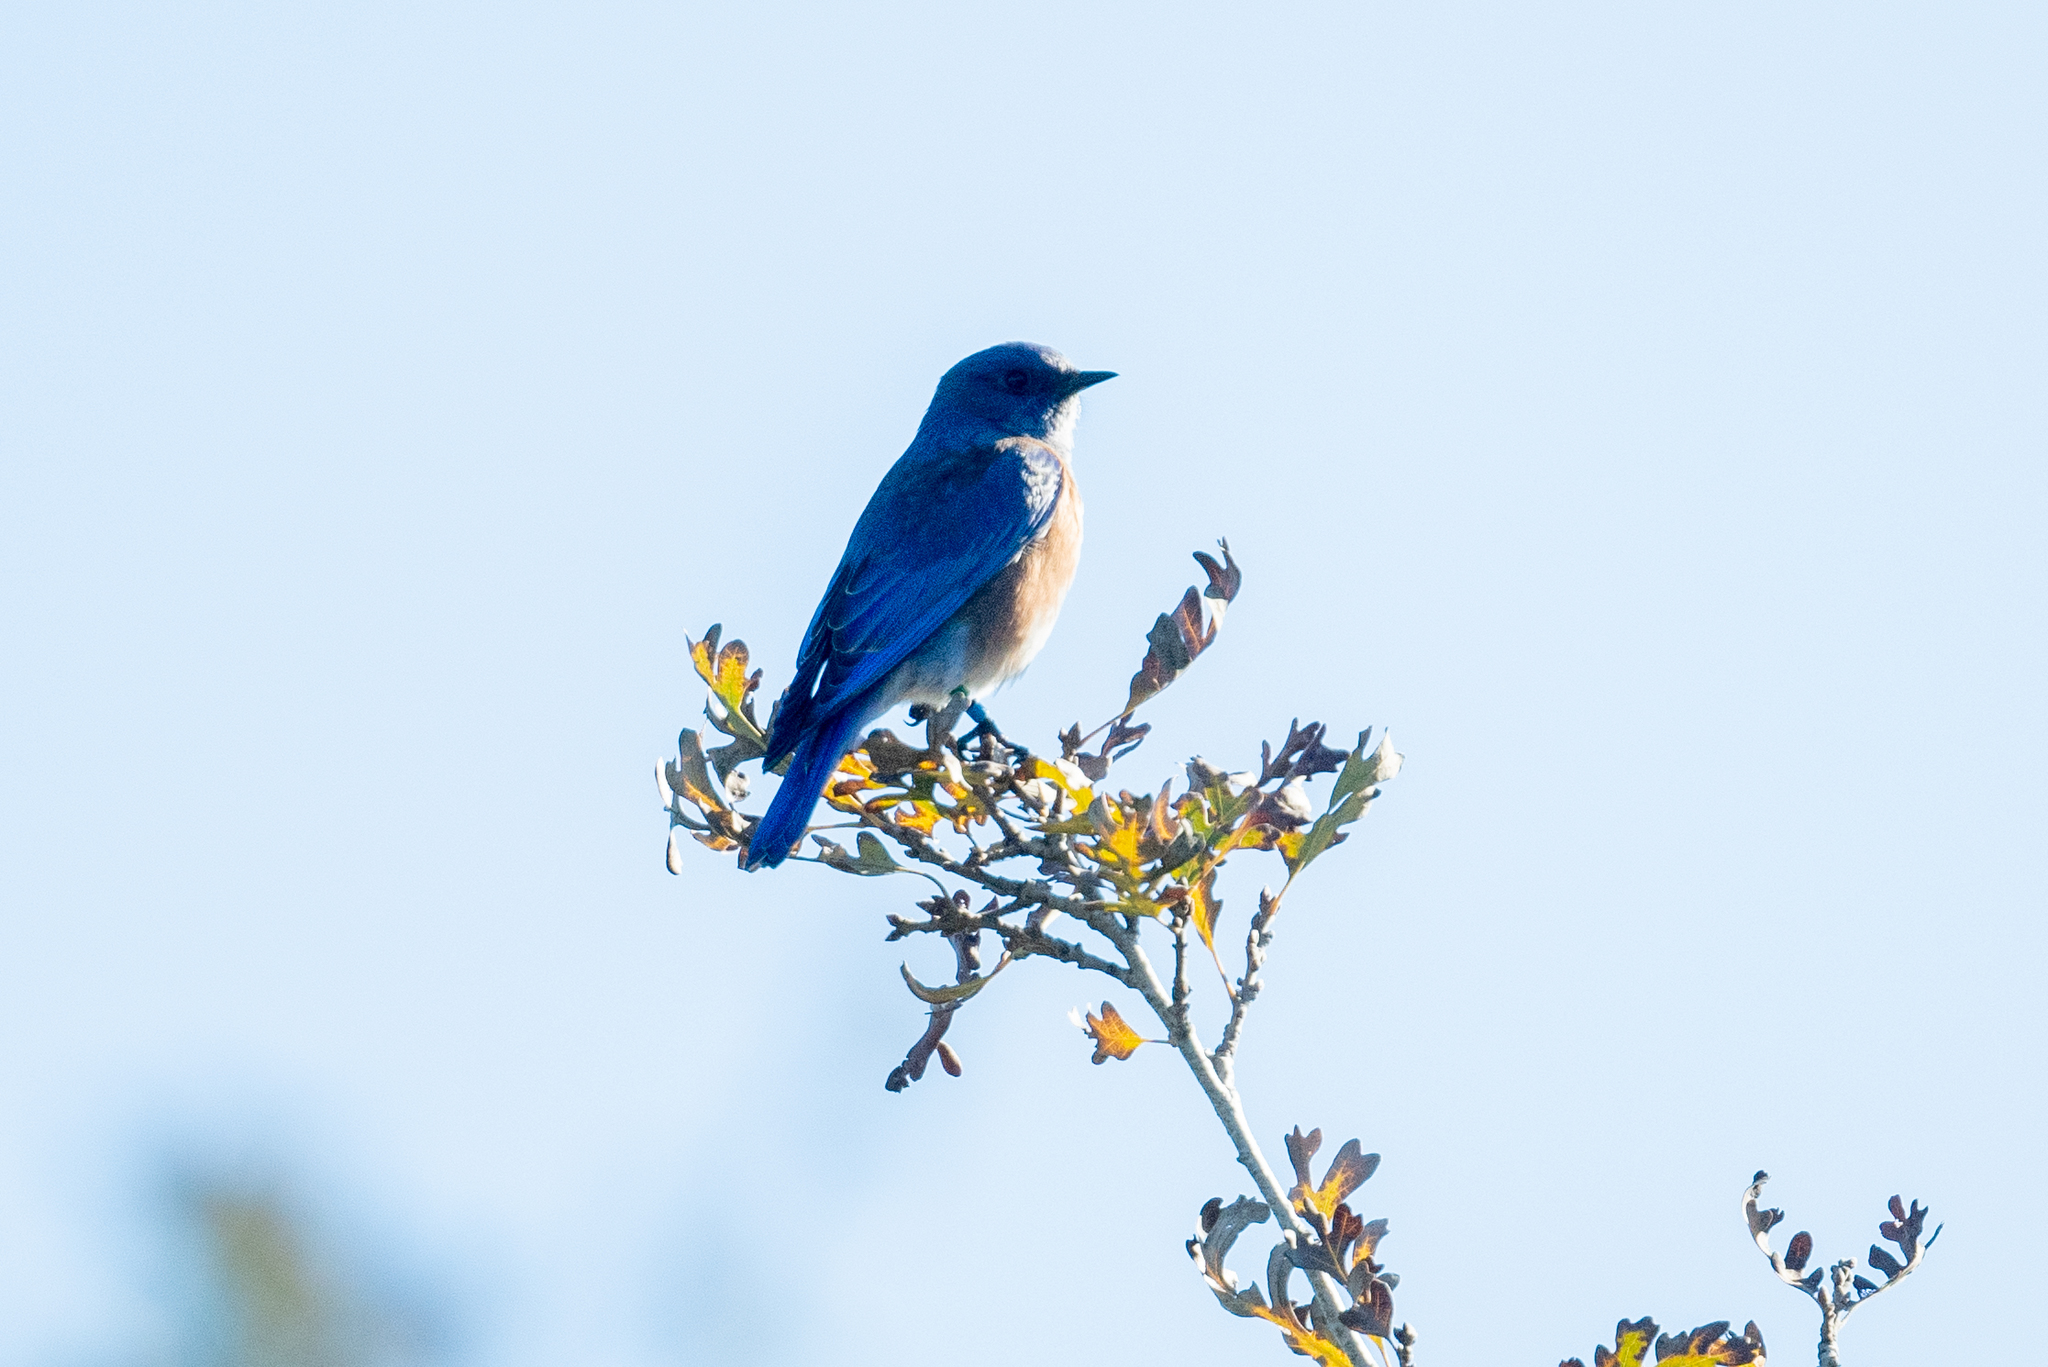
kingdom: Animalia
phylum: Chordata
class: Aves
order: Passeriformes
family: Turdidae
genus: Sialia
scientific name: Sialia mexicana
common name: Western bluebird
